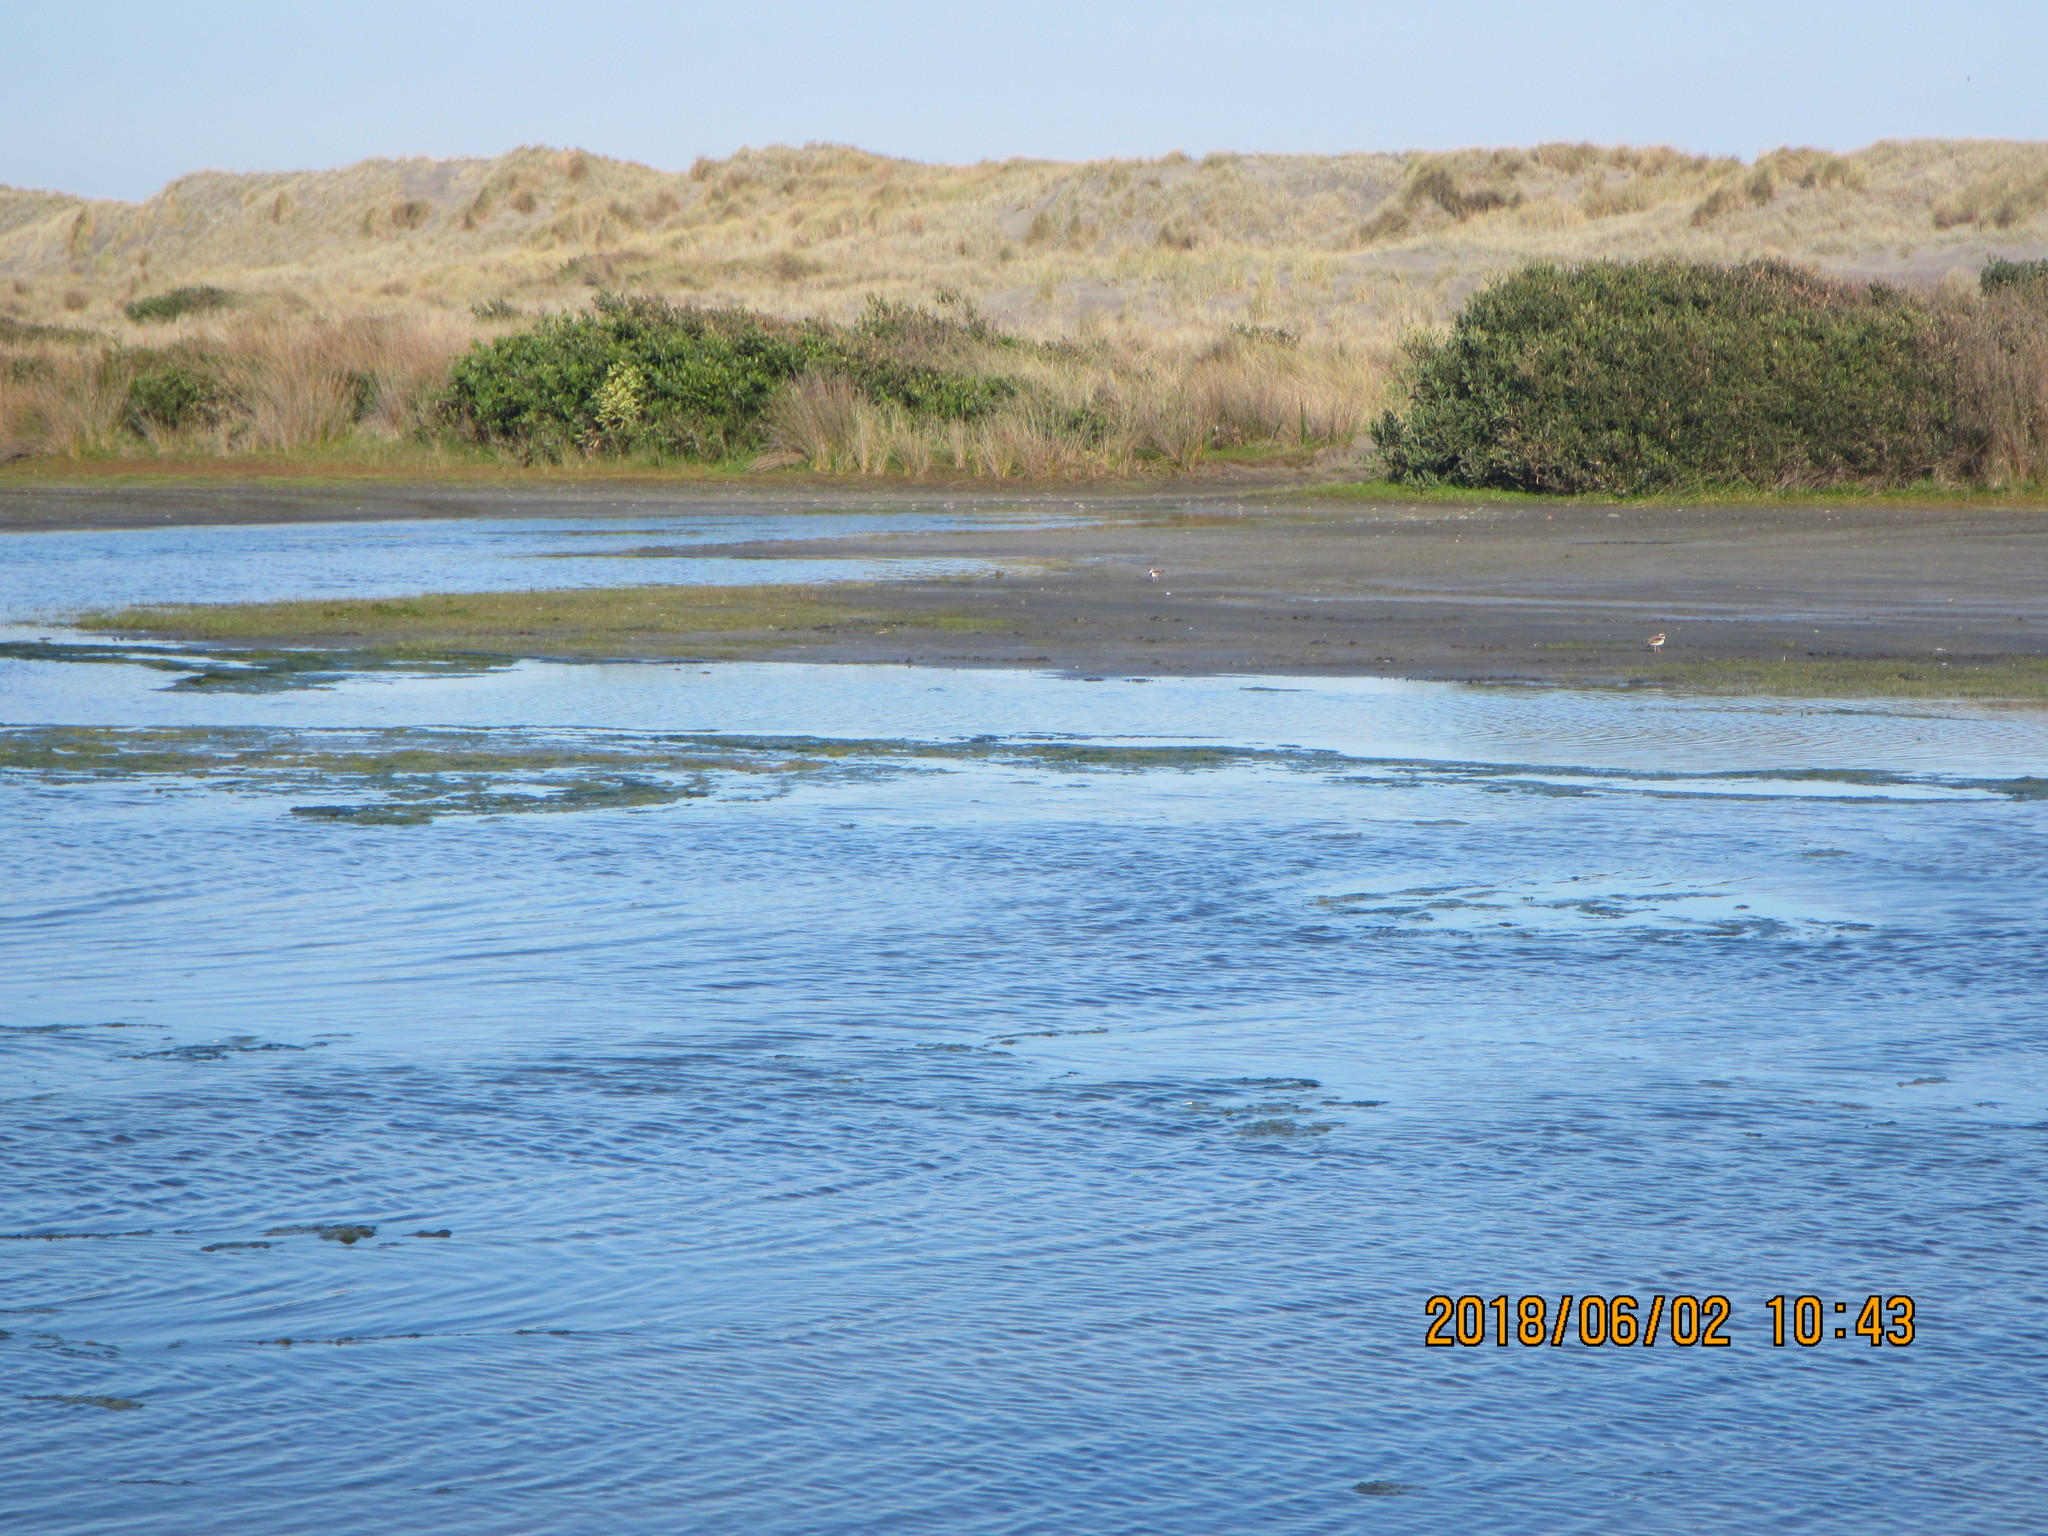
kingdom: Animalia
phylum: Chordata
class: Aves
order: Charadriiformes
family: Charadriidae
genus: Elseyornis
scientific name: Elseyornis melanops
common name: Black-fronted dotterel
